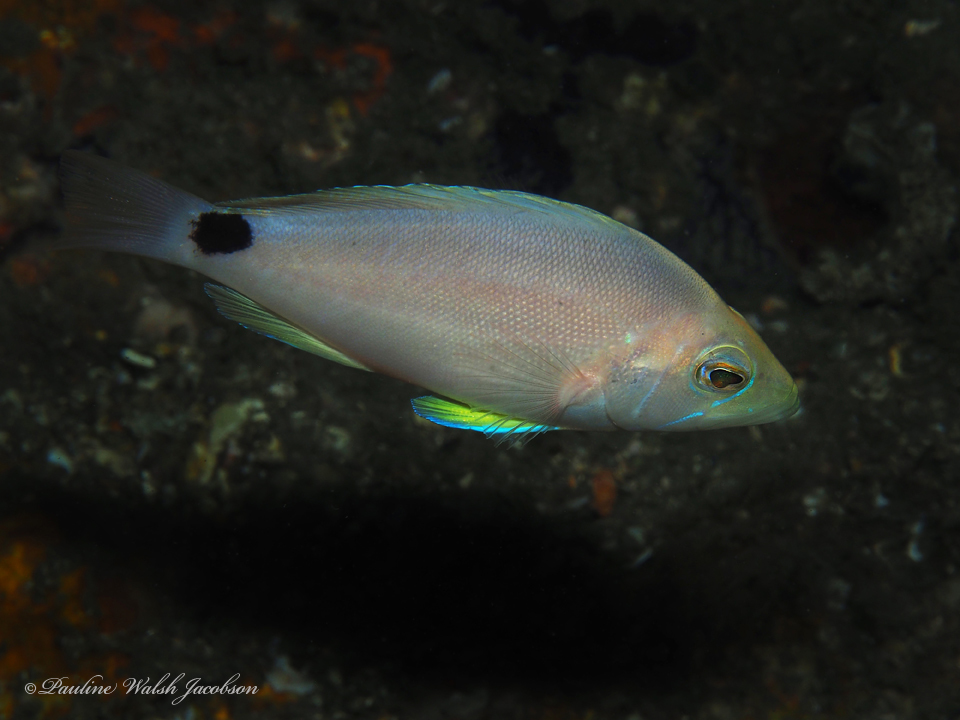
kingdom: Animalia
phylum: Chordata
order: Perciformes
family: Serranidae
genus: Hypoplectrus
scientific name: Hypoplectrus unicolor
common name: Butter hamlet
